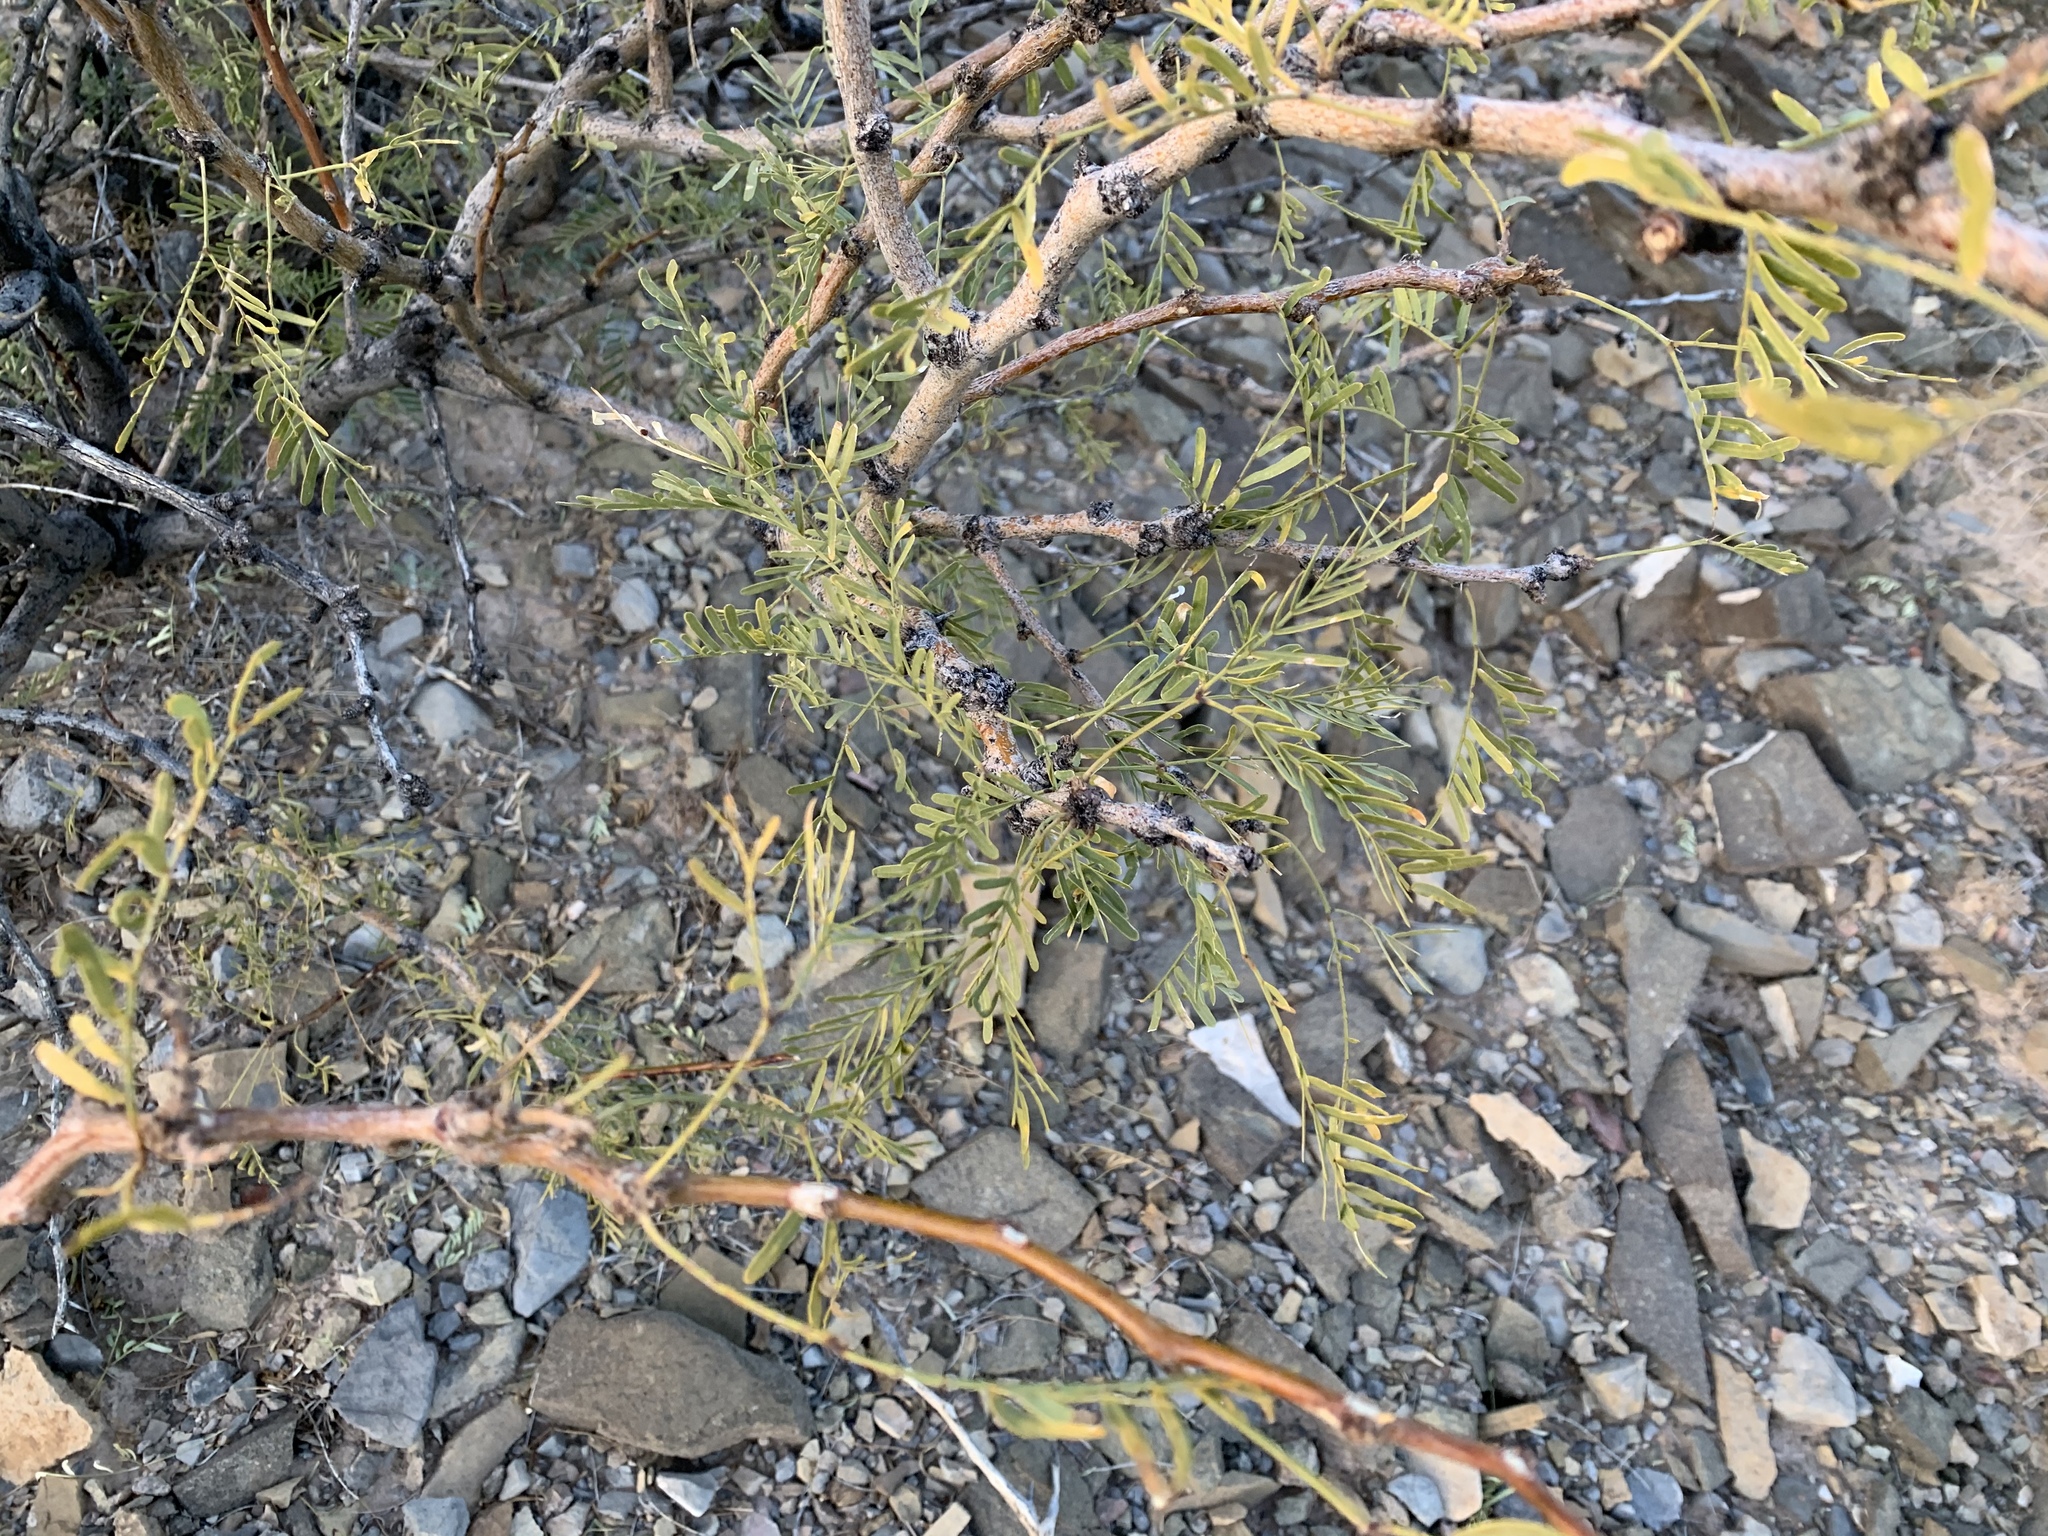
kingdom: Plantae
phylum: Tracheophyta
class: Magnoliopsida
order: Fabales
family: Fabaceae
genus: Prosopis
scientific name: Prosopis glandulosa
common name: Honey mesquite
